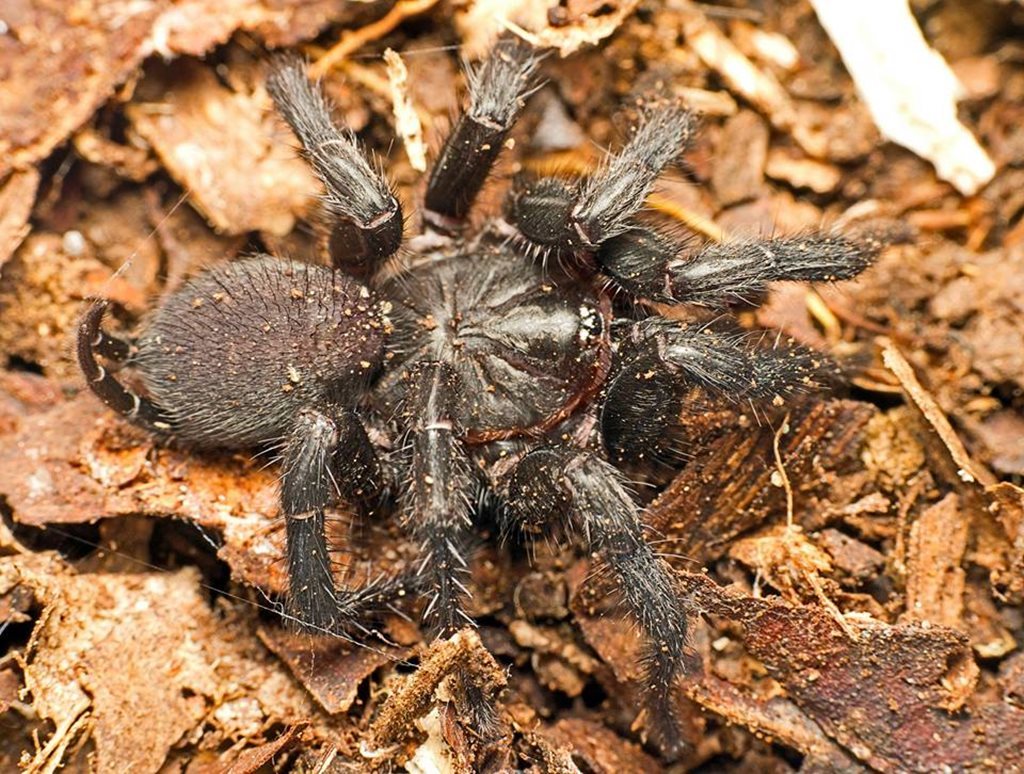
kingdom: Animalia
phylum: Arthropoda
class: Arachnida
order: Araneae
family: Euagridae
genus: Australothele
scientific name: Australothele jamiesoni
